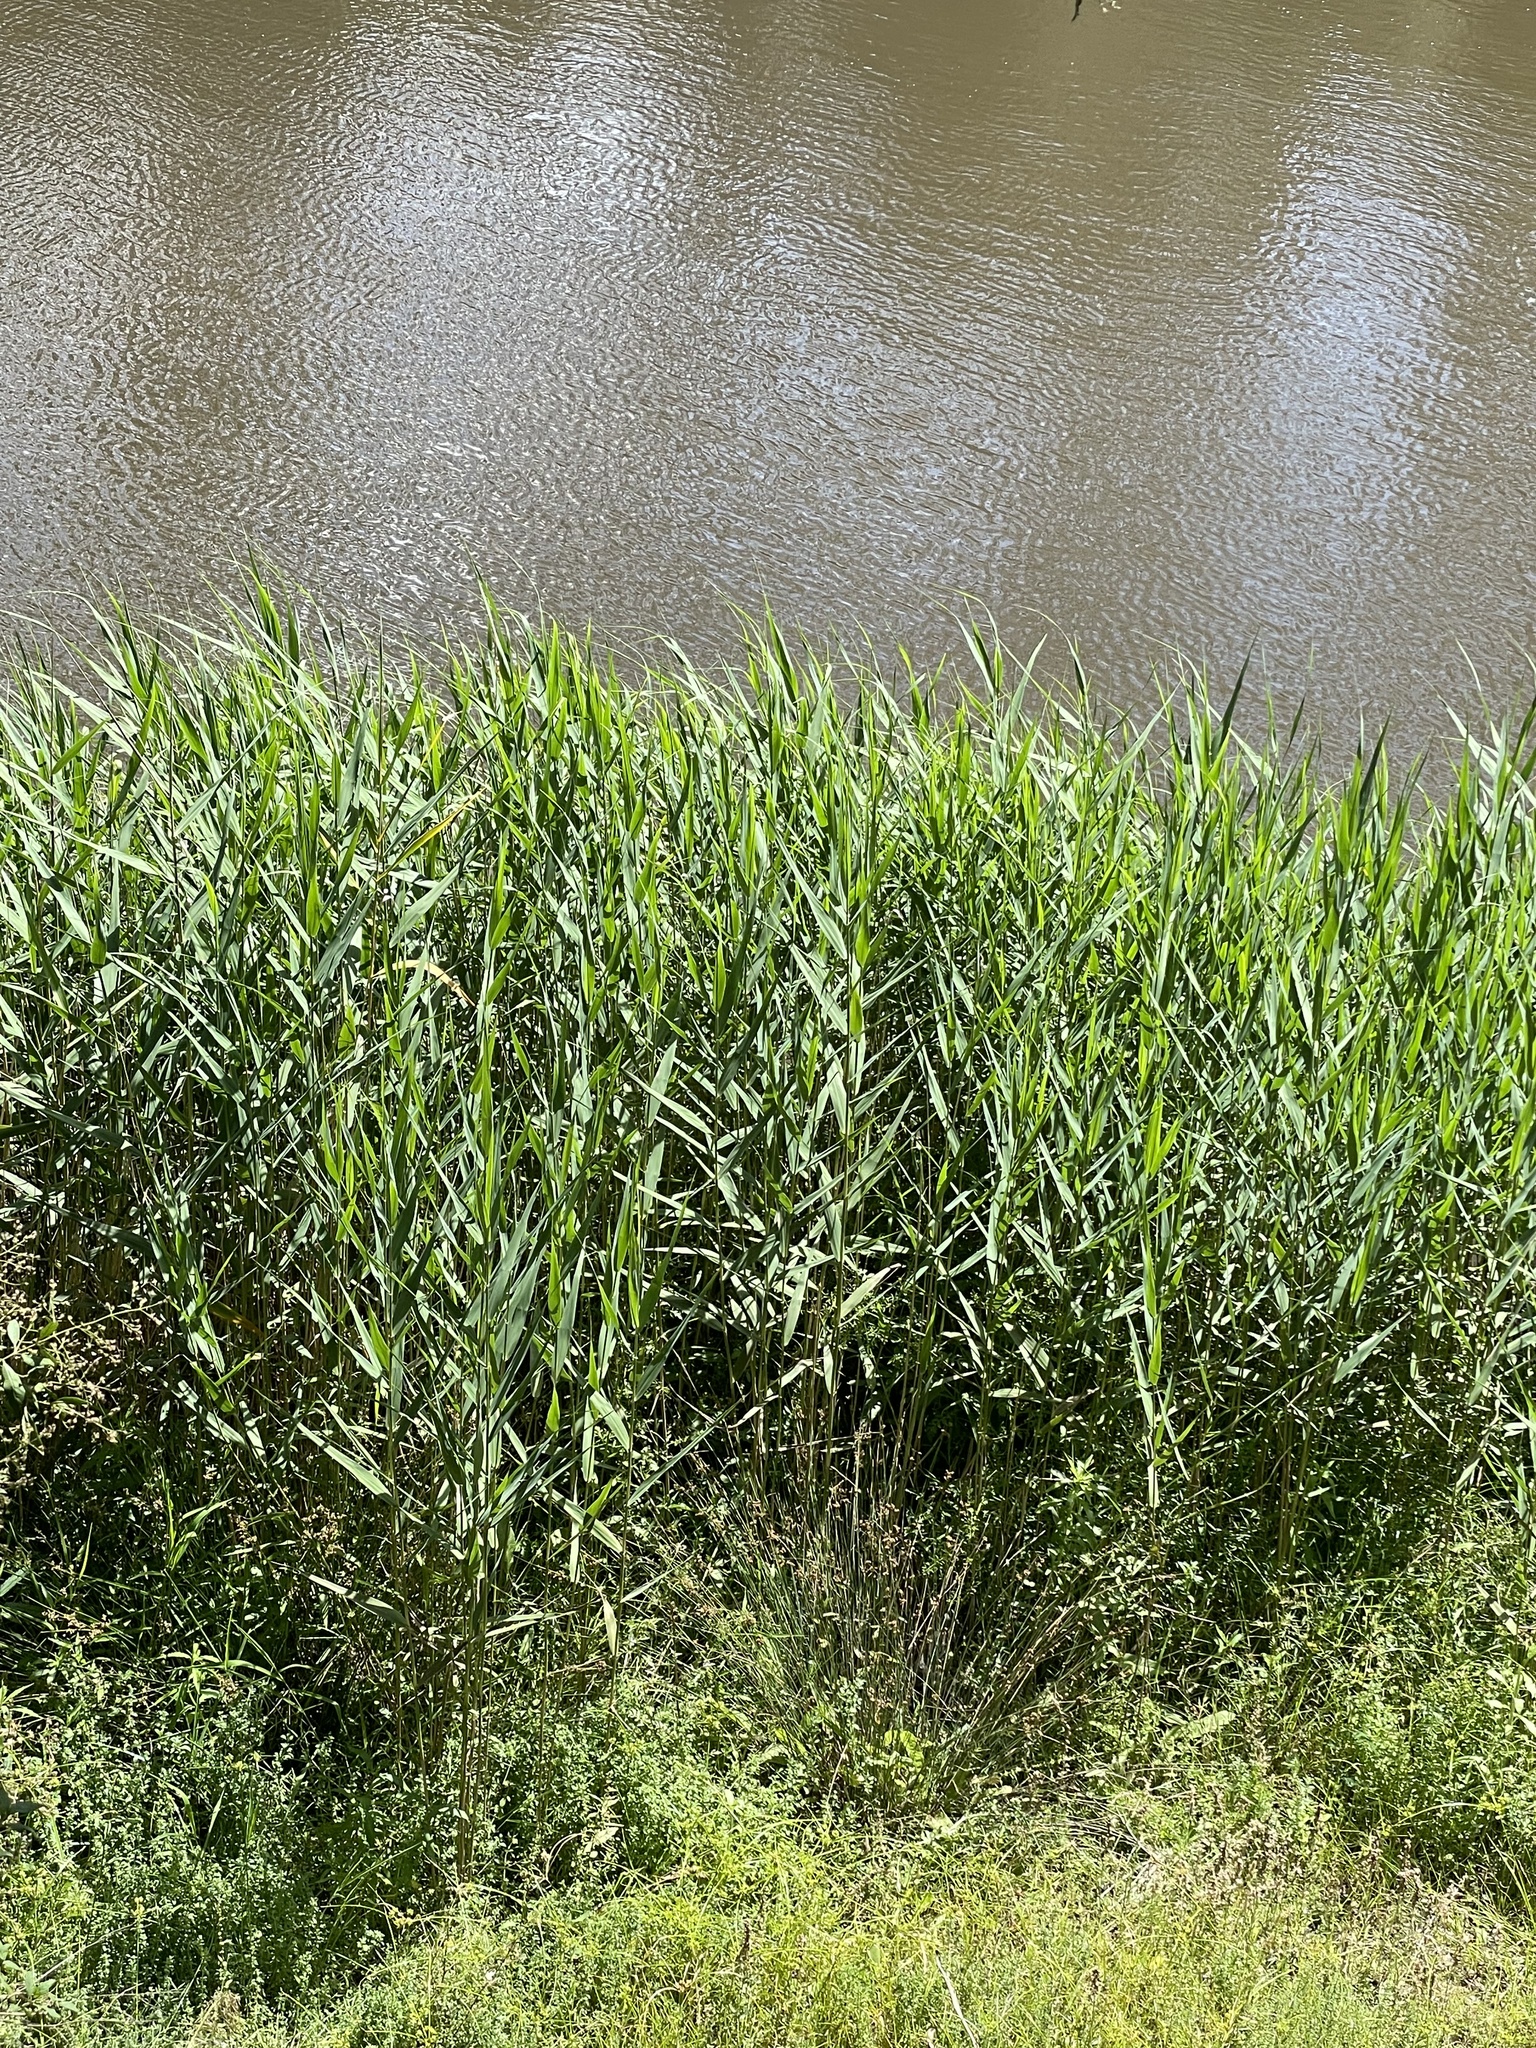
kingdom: Plantae
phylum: Tracheophyta
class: Liliopsida
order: Poales
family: Poaceae
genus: Phragmites
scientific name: Phragmites australis
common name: Common reed
